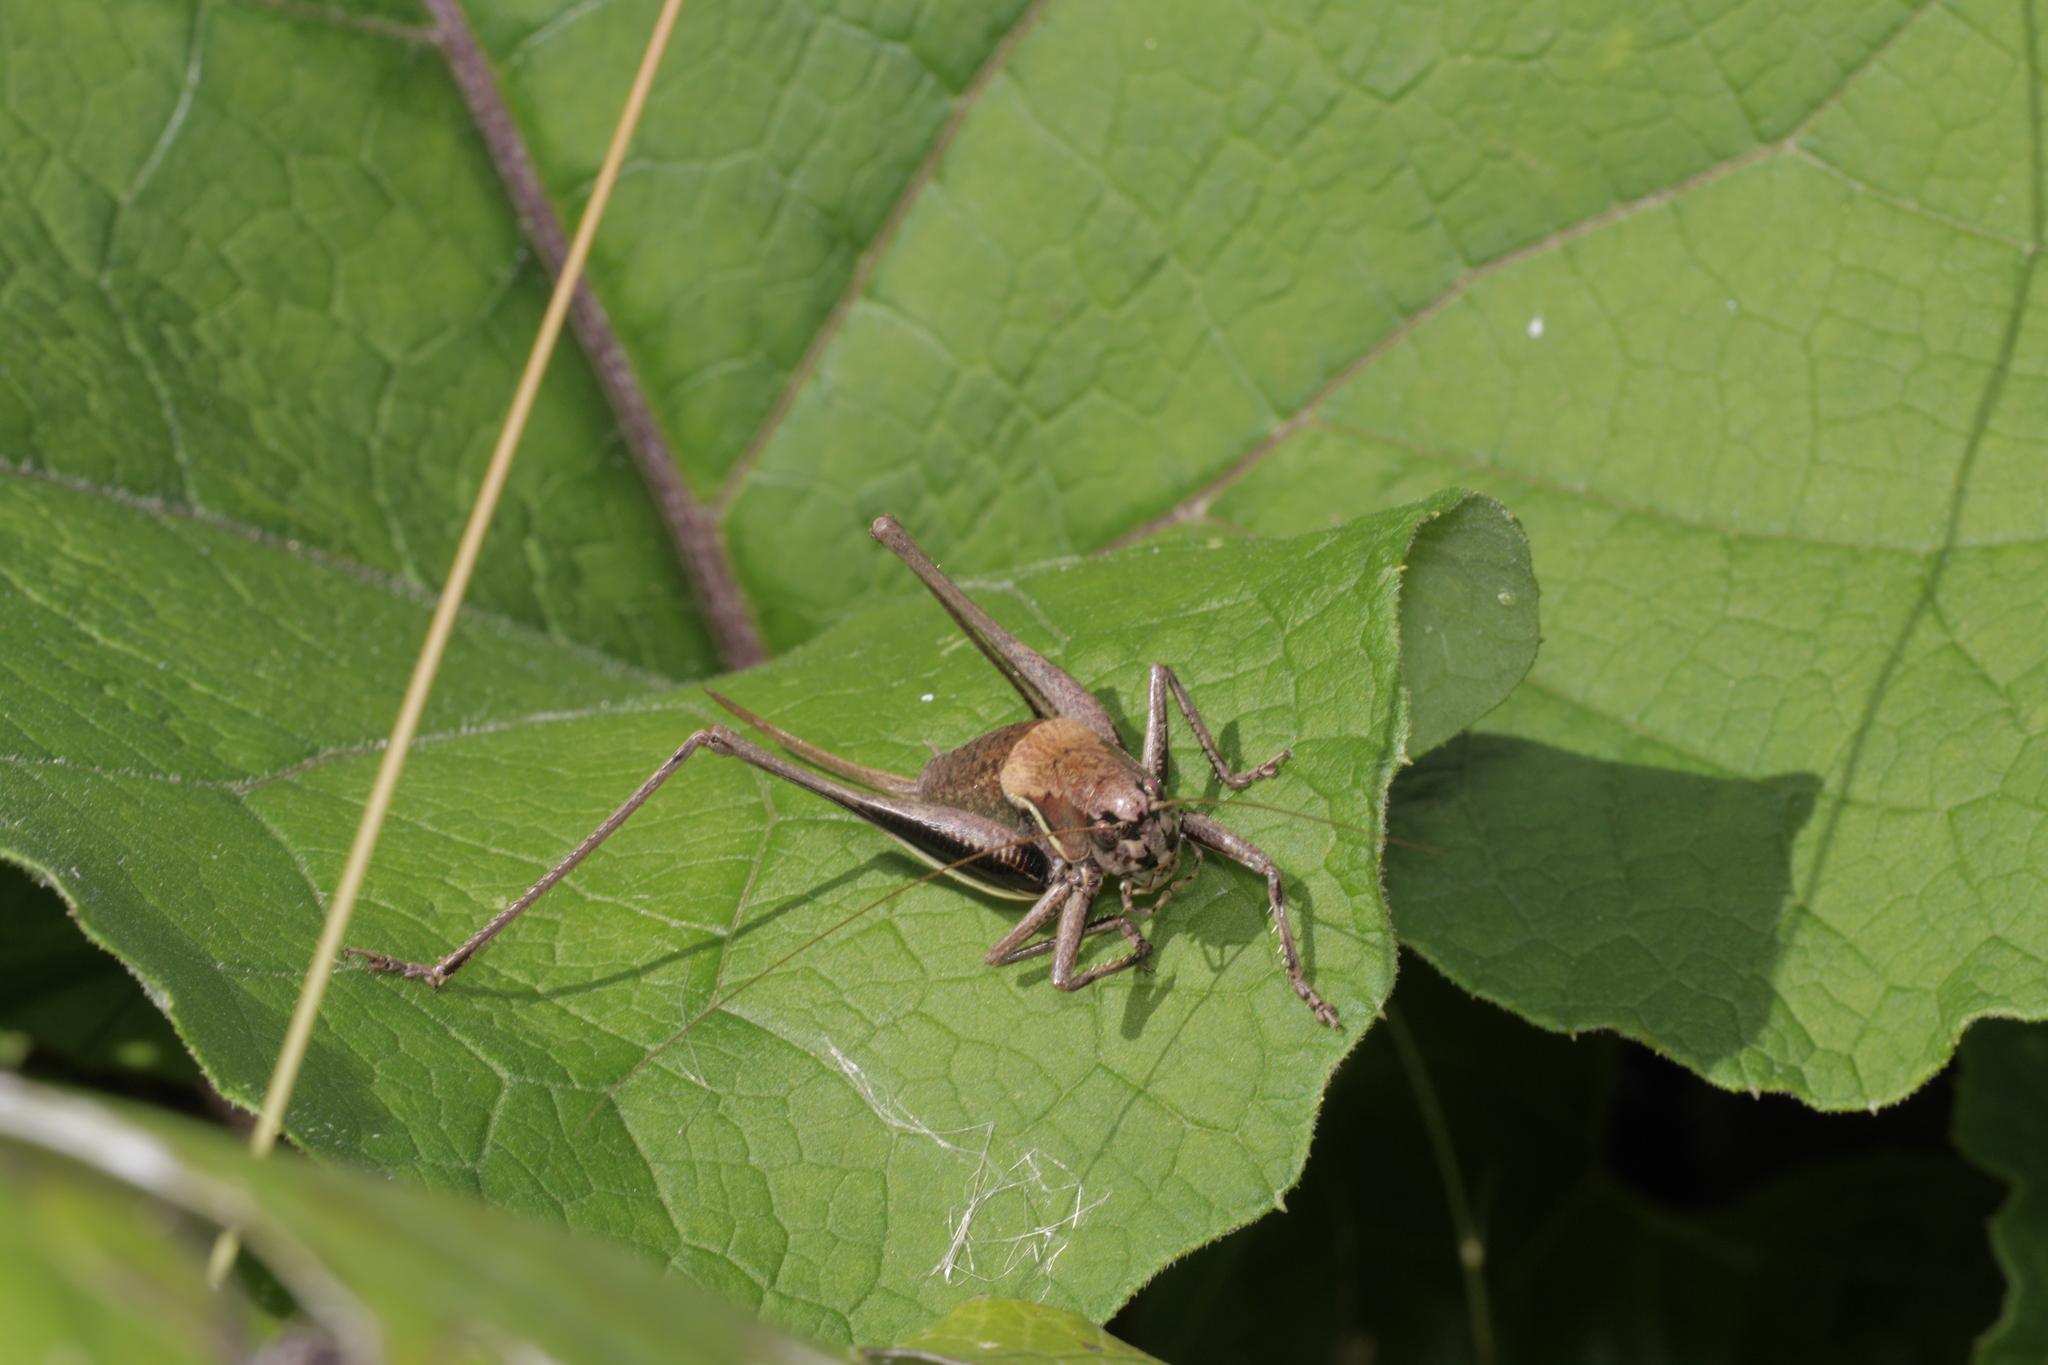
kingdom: Animalia
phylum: Arthropoda
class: Insecta
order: Orthoptera
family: Tettigoniidae
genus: Pholidoptera
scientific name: Pholidoptera aptera
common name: Alpine dark bush-cricket
